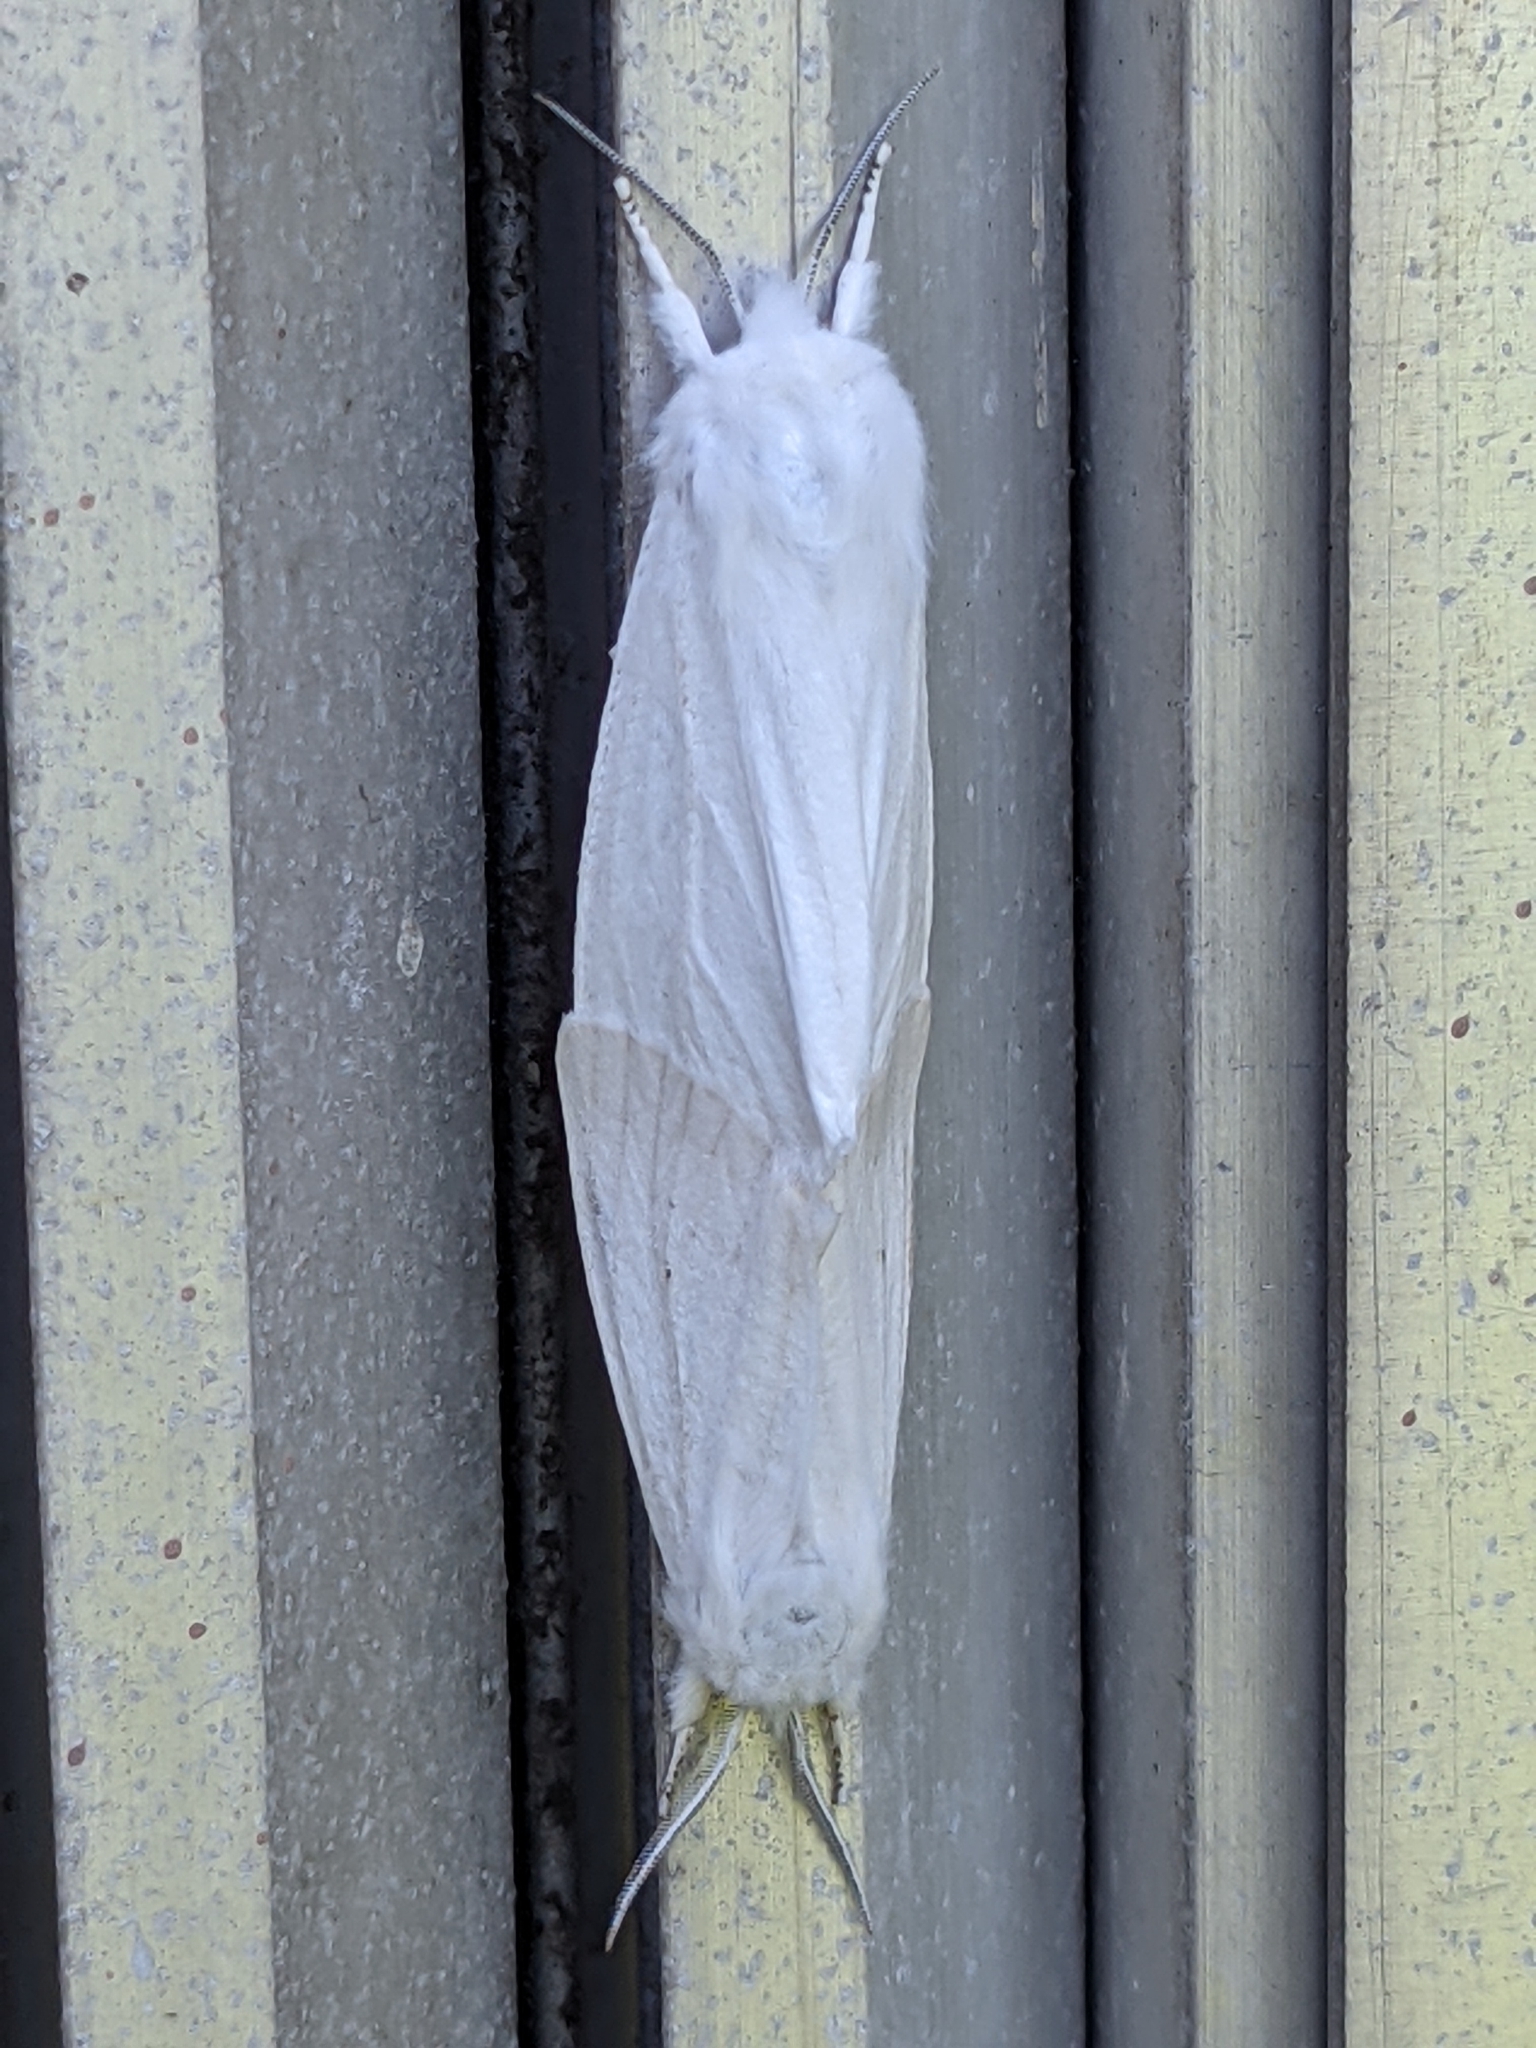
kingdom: Animalia
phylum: Arthropoda
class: Insecta
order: Lepidoptera
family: Erebidae
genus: Spilosoma
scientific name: Spilosoma virginica
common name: Virginia tiger moth
